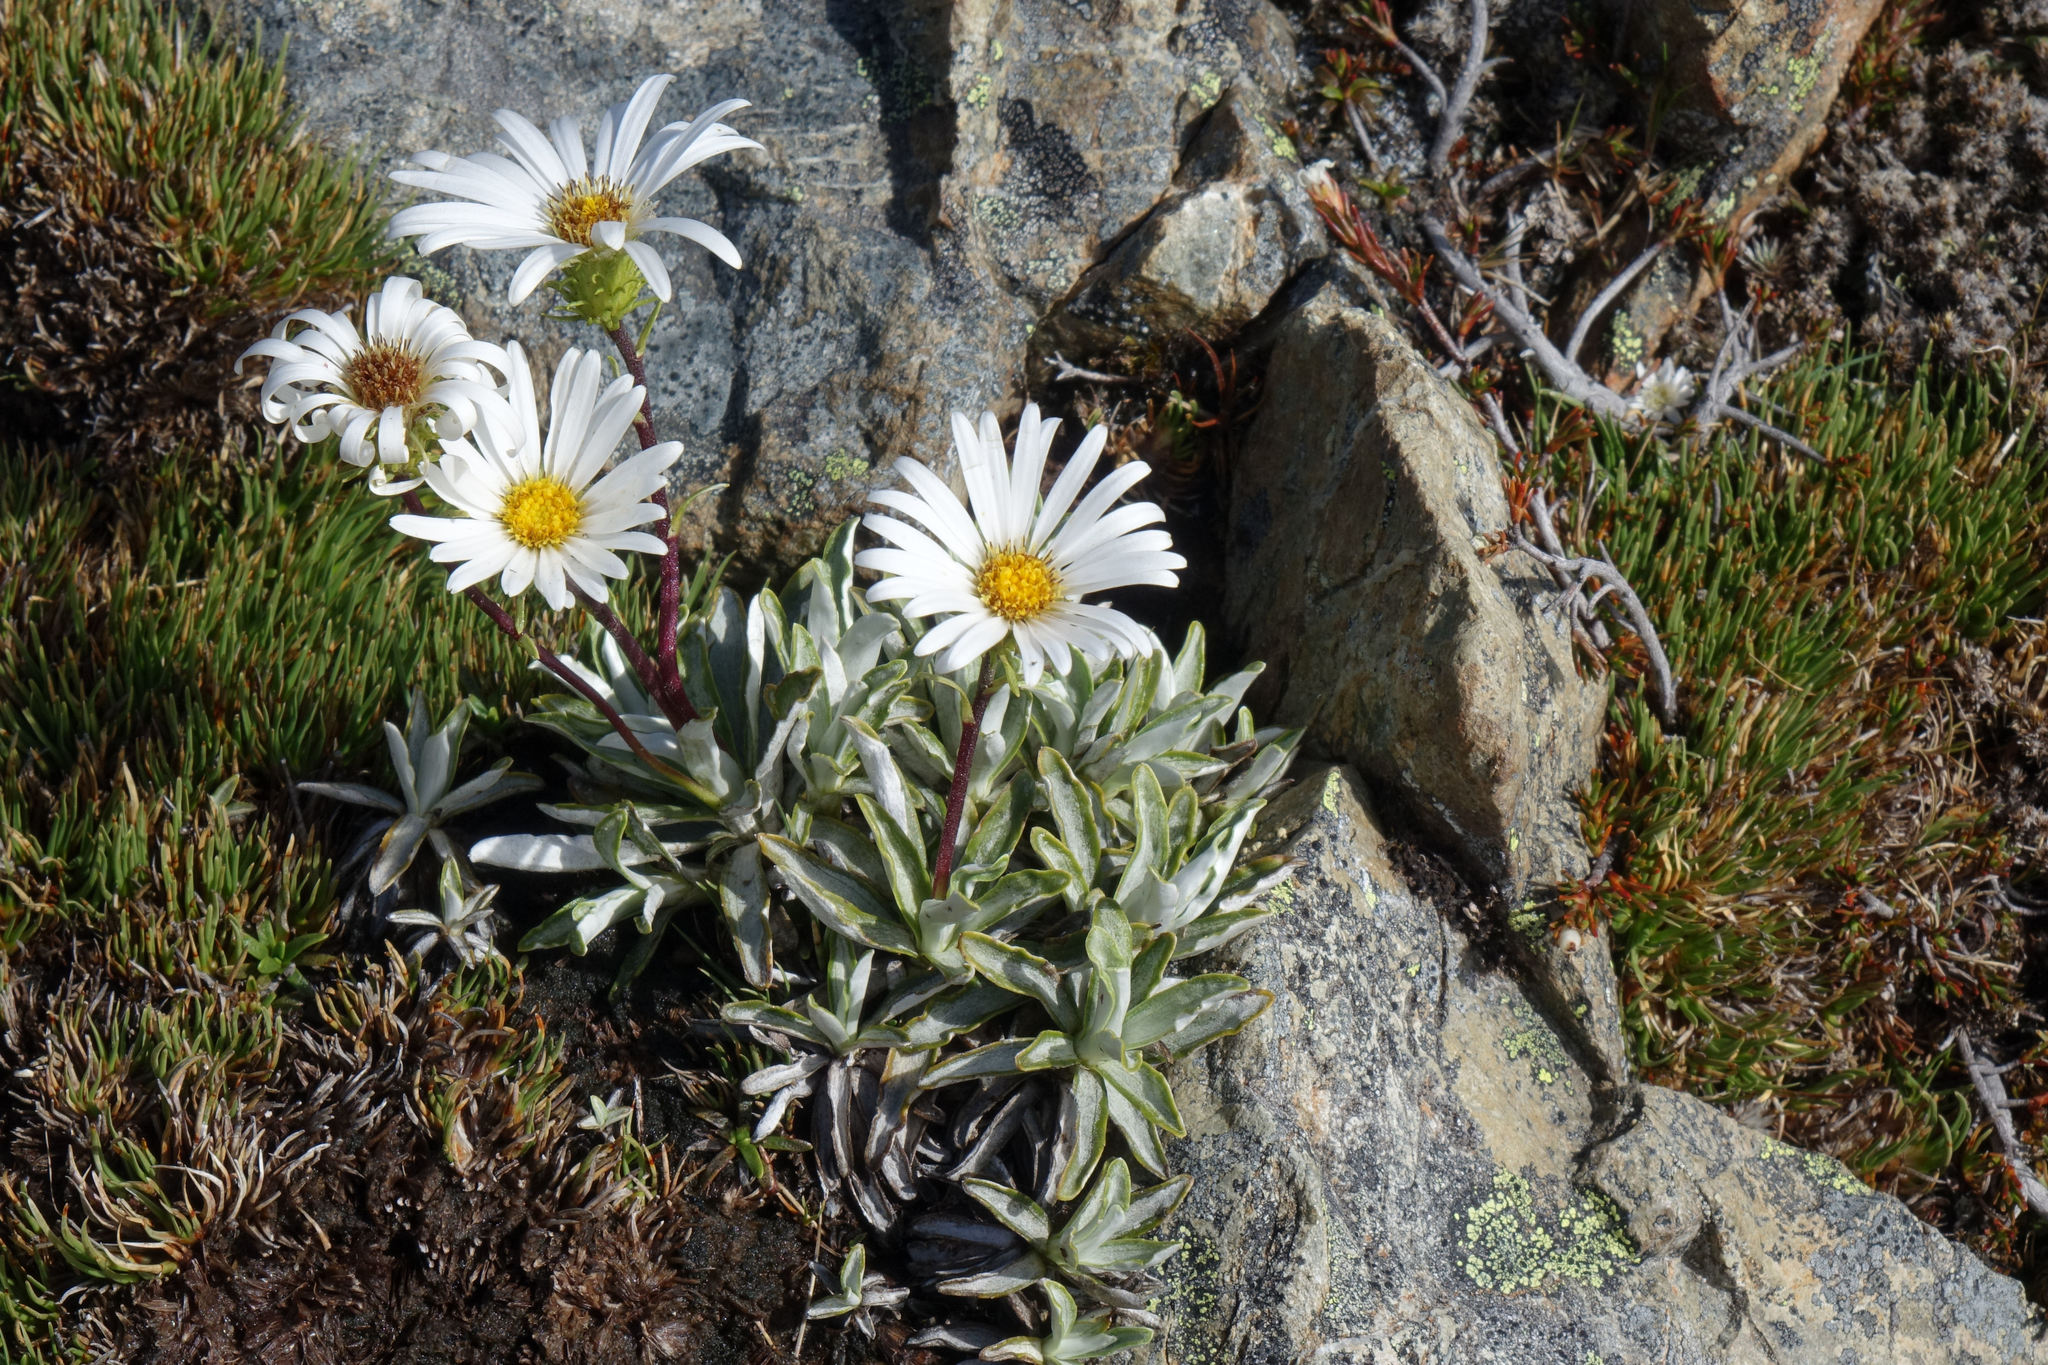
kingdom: Plantae
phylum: Tracheophyta
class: Magnoliopsida
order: Asterales
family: Asteraceae
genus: Celmisia
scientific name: Celmisia angustifolia
